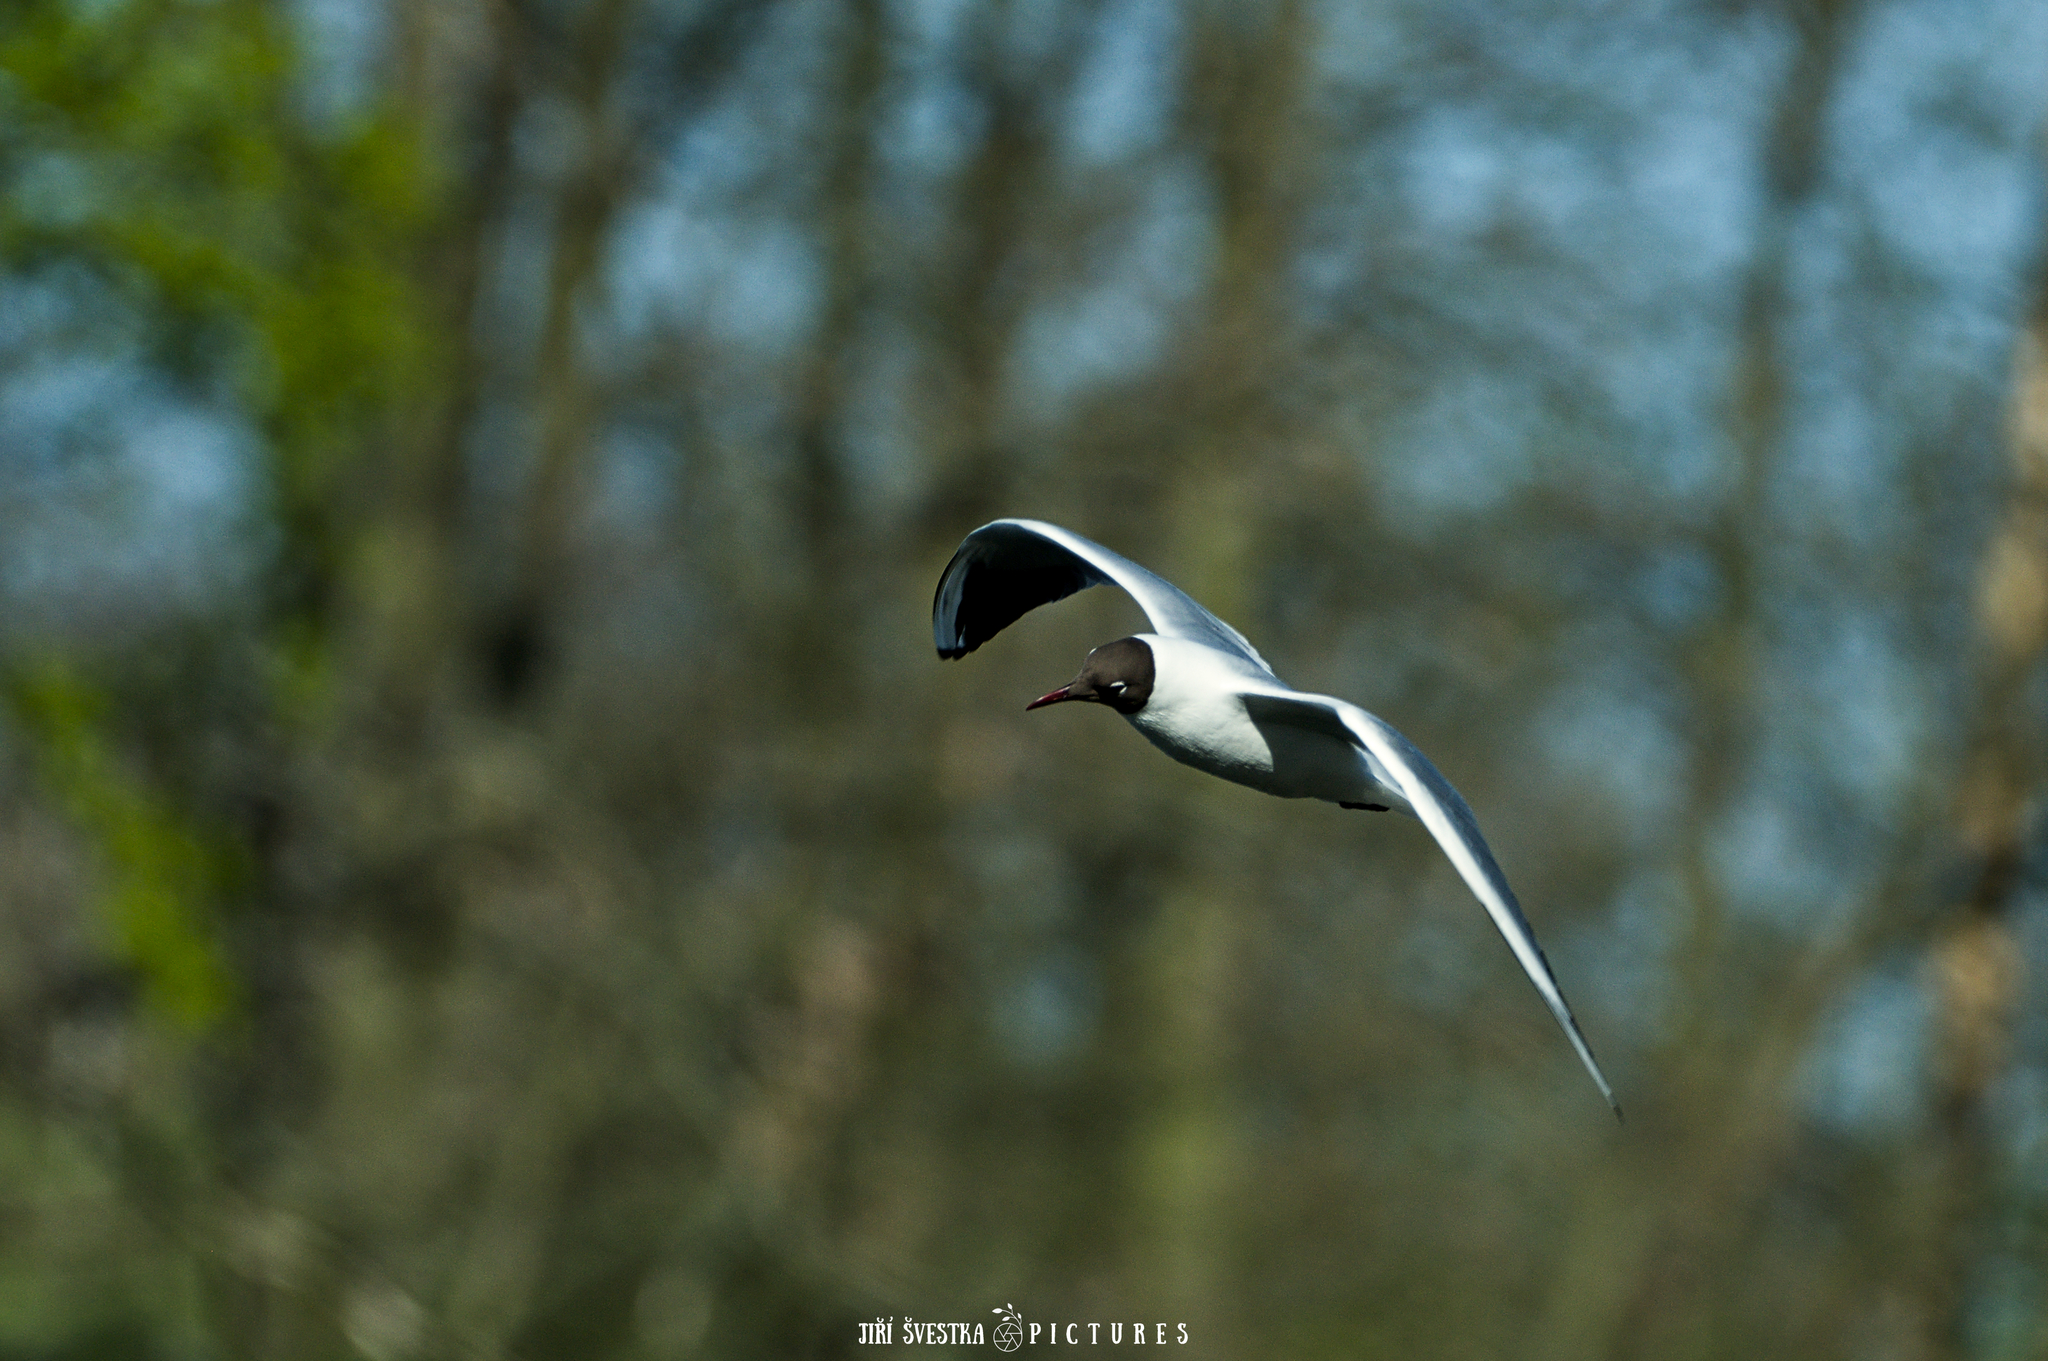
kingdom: Animalia
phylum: Chordata
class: Aves
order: Charadriiformes
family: Laridae
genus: Chroicocephalus
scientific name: Chroicocephalus ridibundus
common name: Black-headed gull
